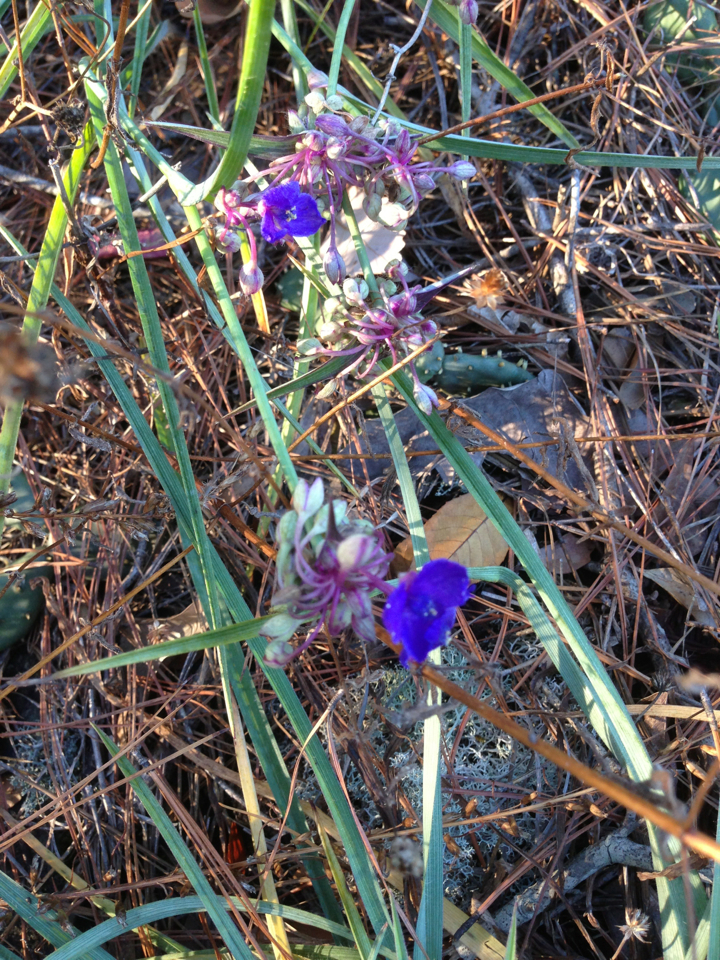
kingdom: Plantae
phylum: Tracheophyta
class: Liliopsida
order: Commelinales
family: Commelinaceae
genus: Tradescantia
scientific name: Tradescantia virginiana
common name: Spiderwort
